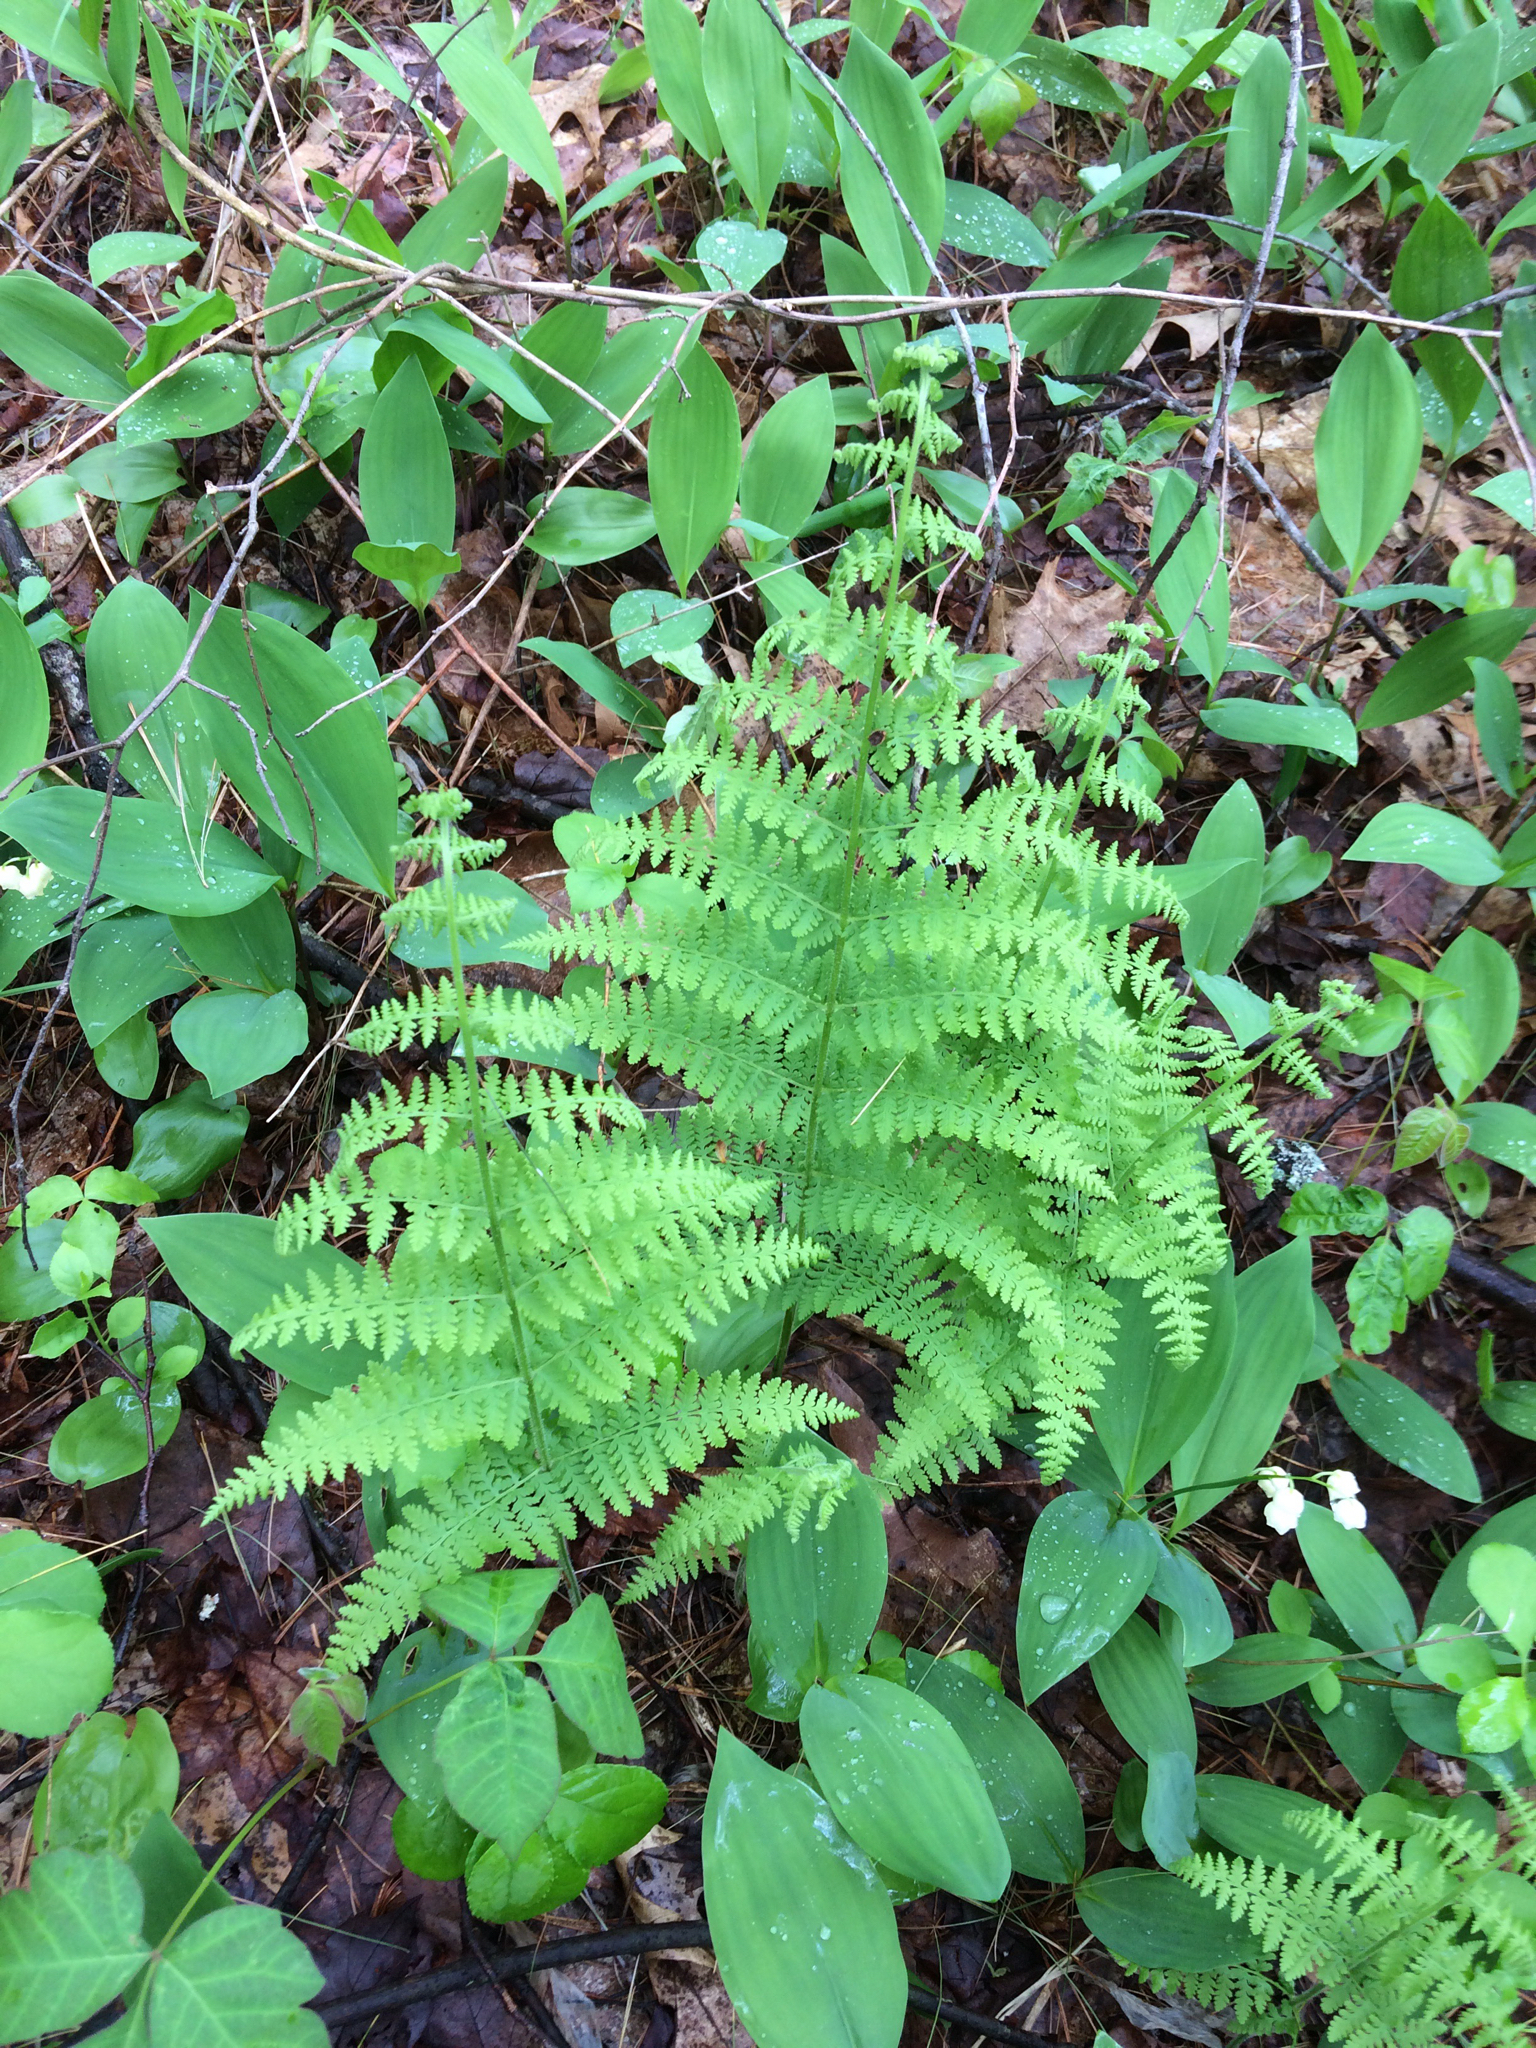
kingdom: Plantae
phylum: Tracheophyta
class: Polypodiopsida
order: Polypodiales
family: Dennstaedtiaceae
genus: Sitobolium
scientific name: Sitobolium punctilobum
